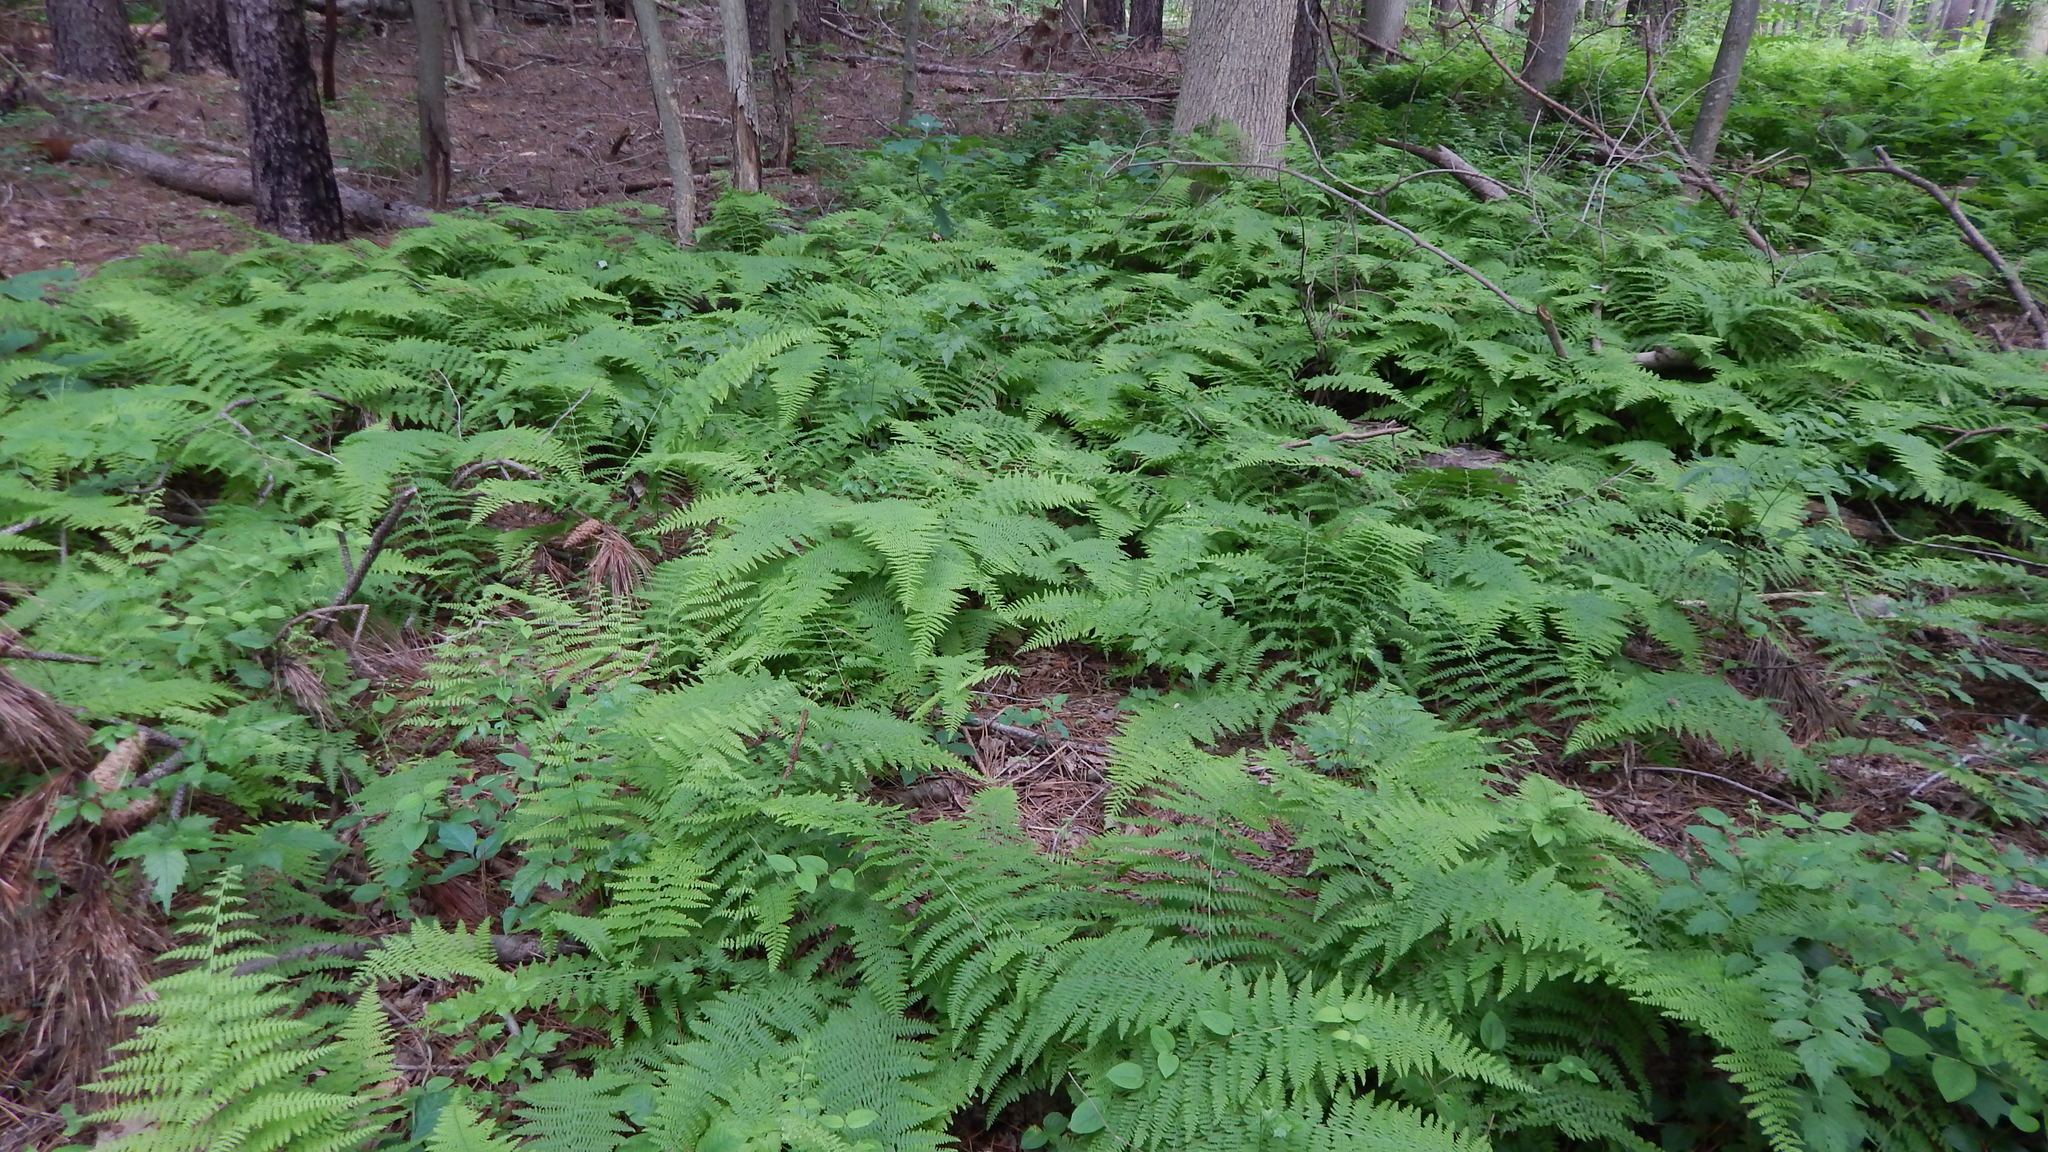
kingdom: Plantae
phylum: Tracheophyta
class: Polypodiopsida
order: Polypodiales
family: Dennstaedtiaceae
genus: Sitobolium
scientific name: Sitobolium punctilobum
